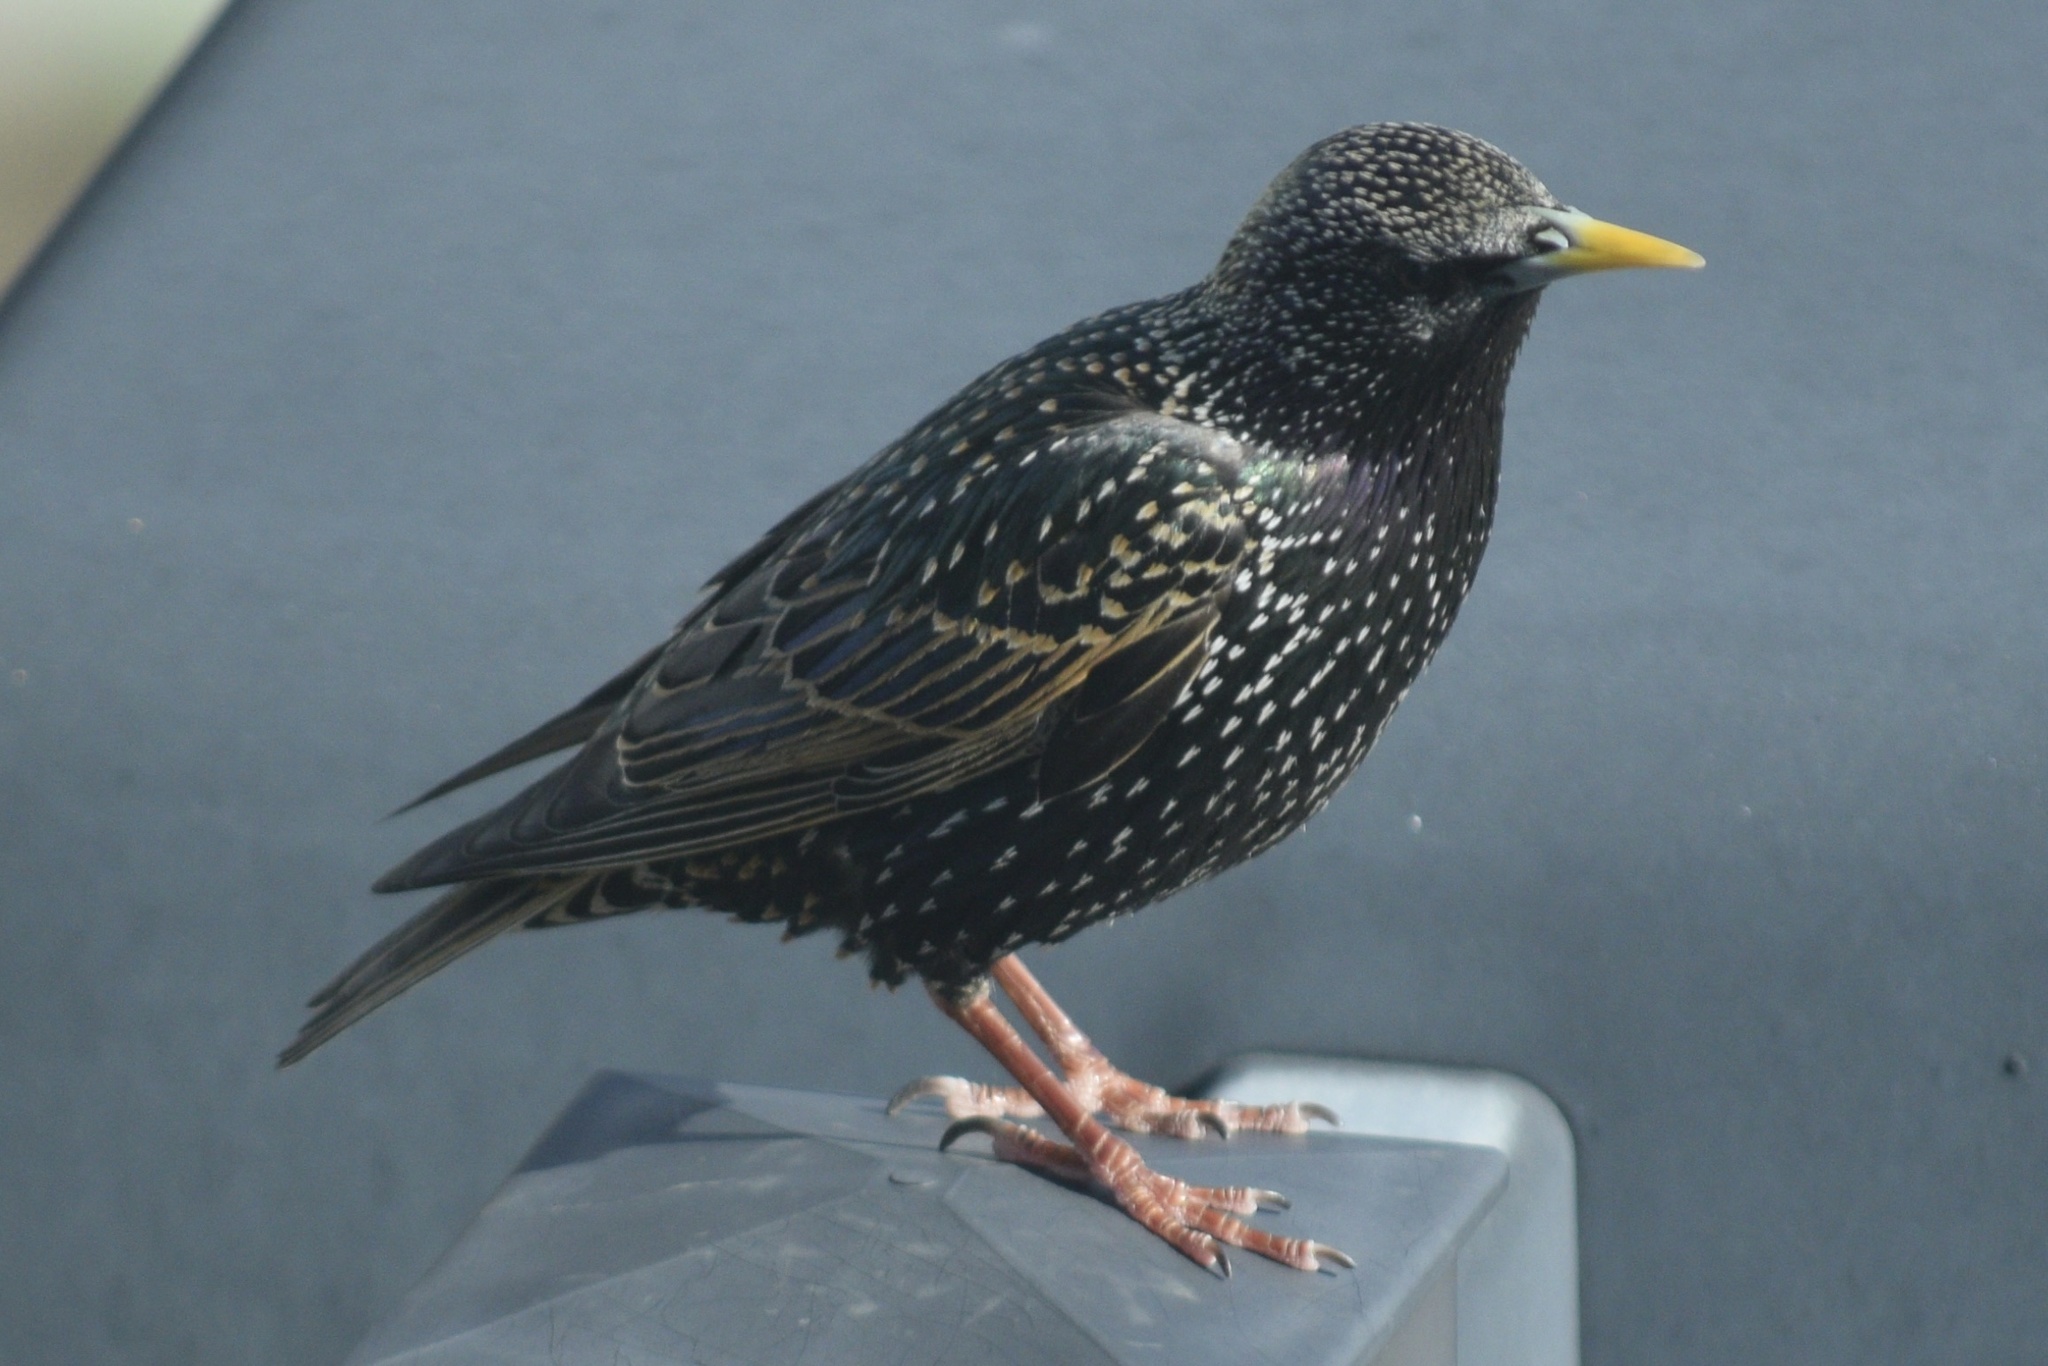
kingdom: Animalia
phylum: Chordata
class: Aves
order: Passeriformes
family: Sturnidae
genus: Sturnus
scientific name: Sturnus vulgaris
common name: Common starling
